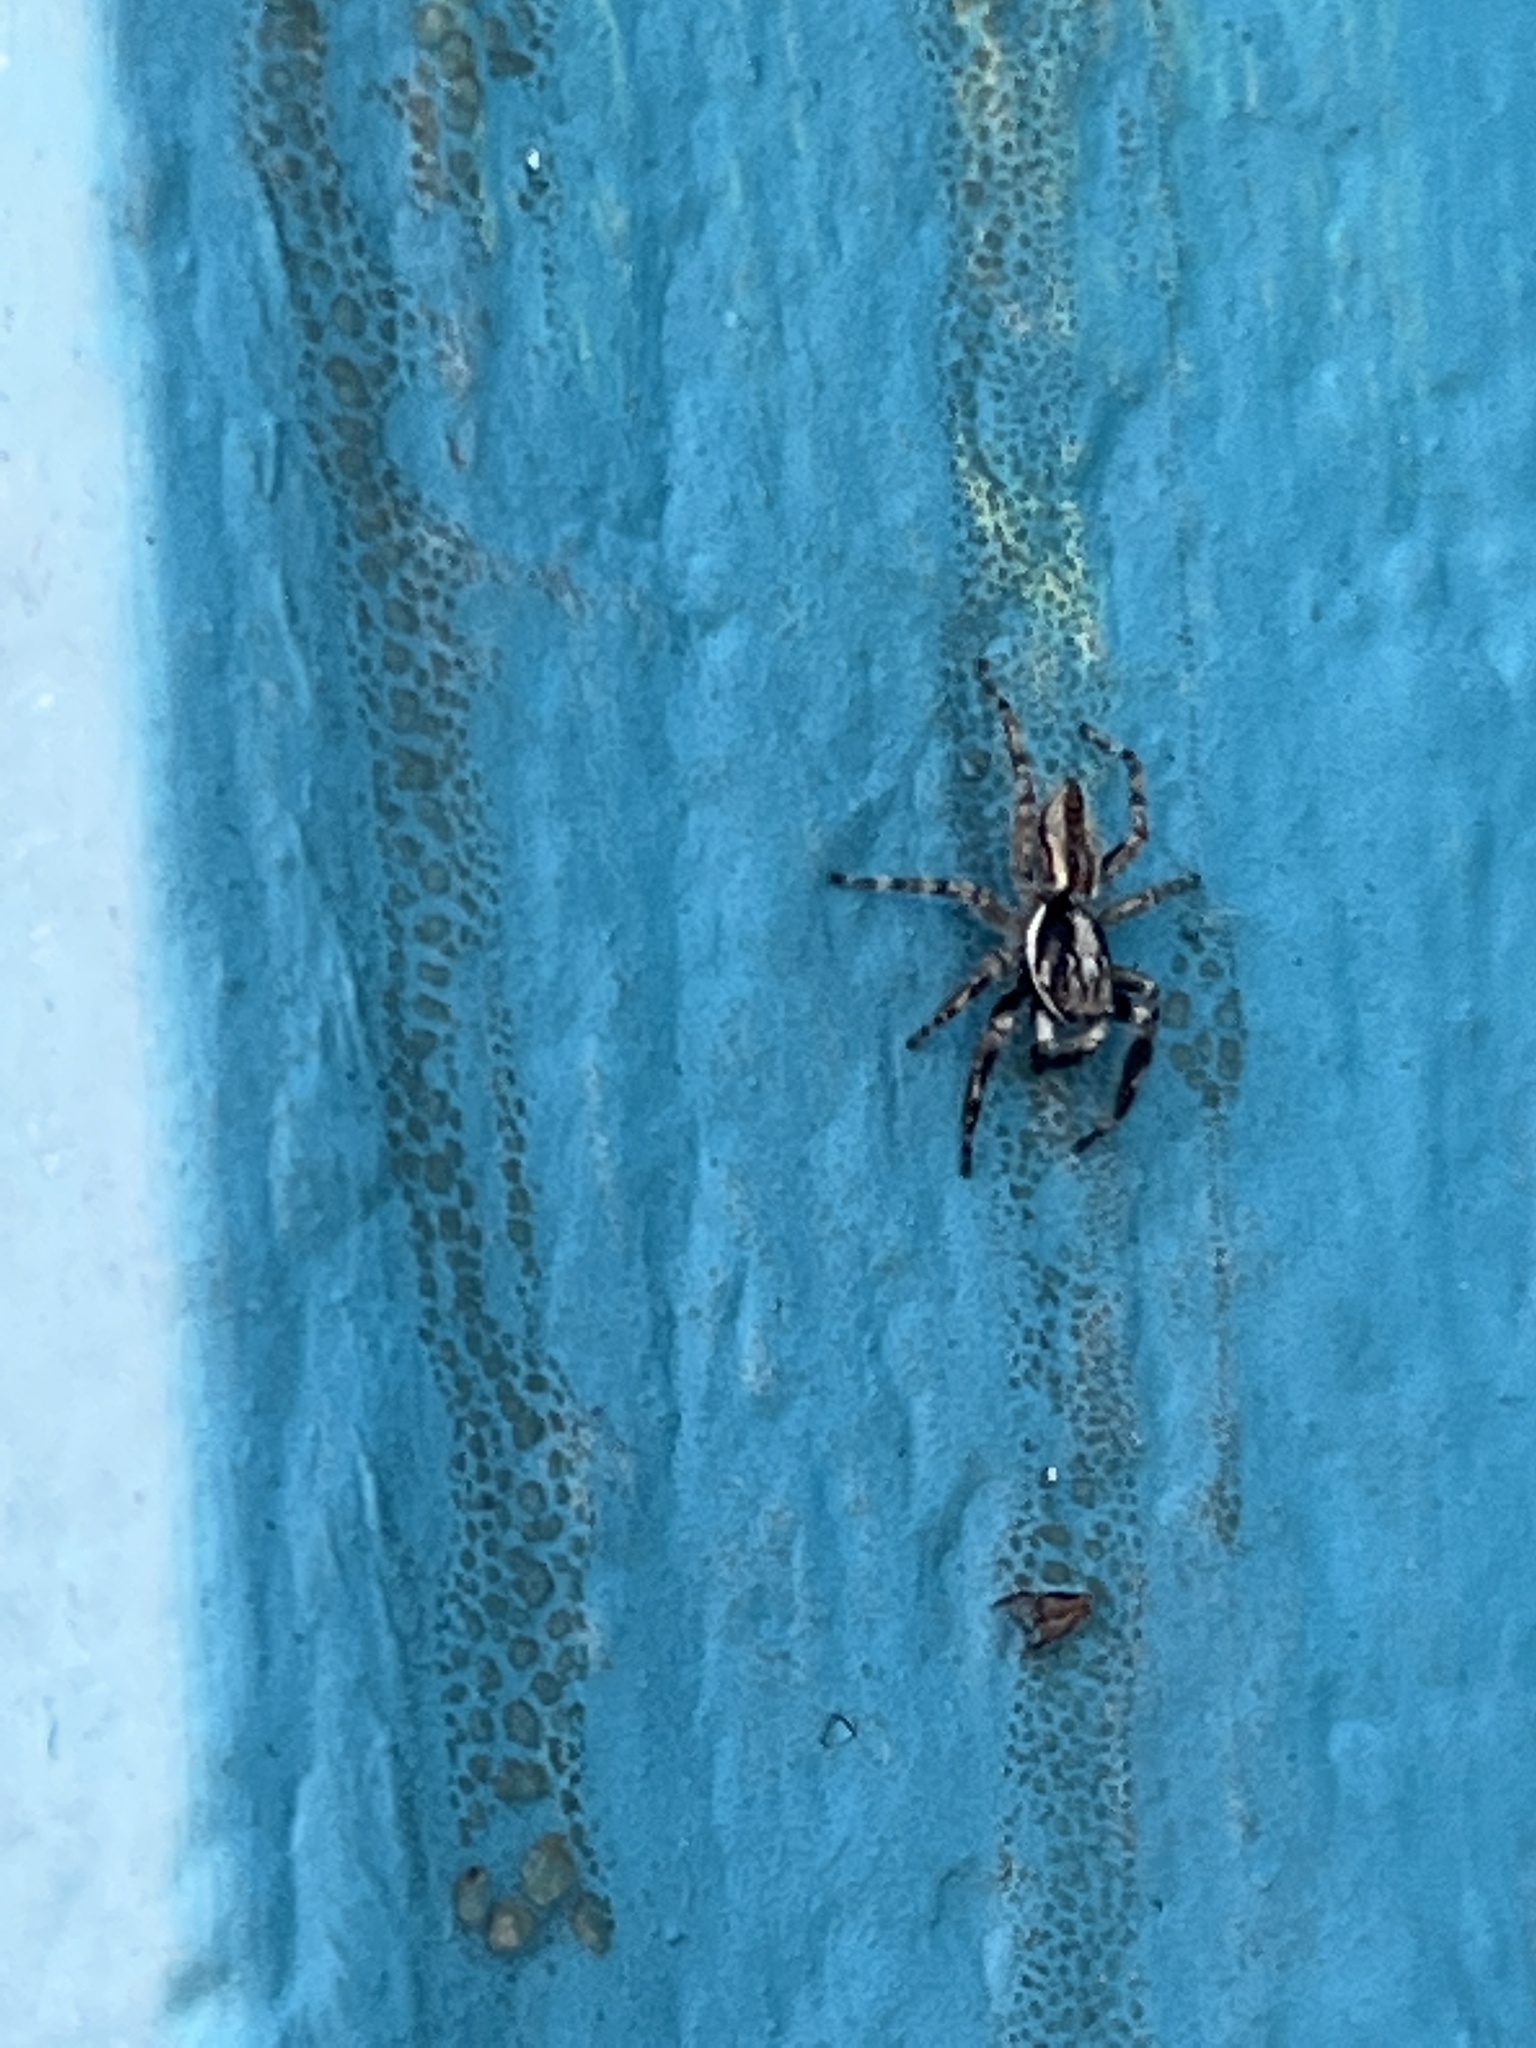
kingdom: Animalia
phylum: Arthropoda
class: Arachnida
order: Araneae
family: Salticidae
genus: Menemerus
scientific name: Menemerus bivittatus
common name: Gray wall jumper
